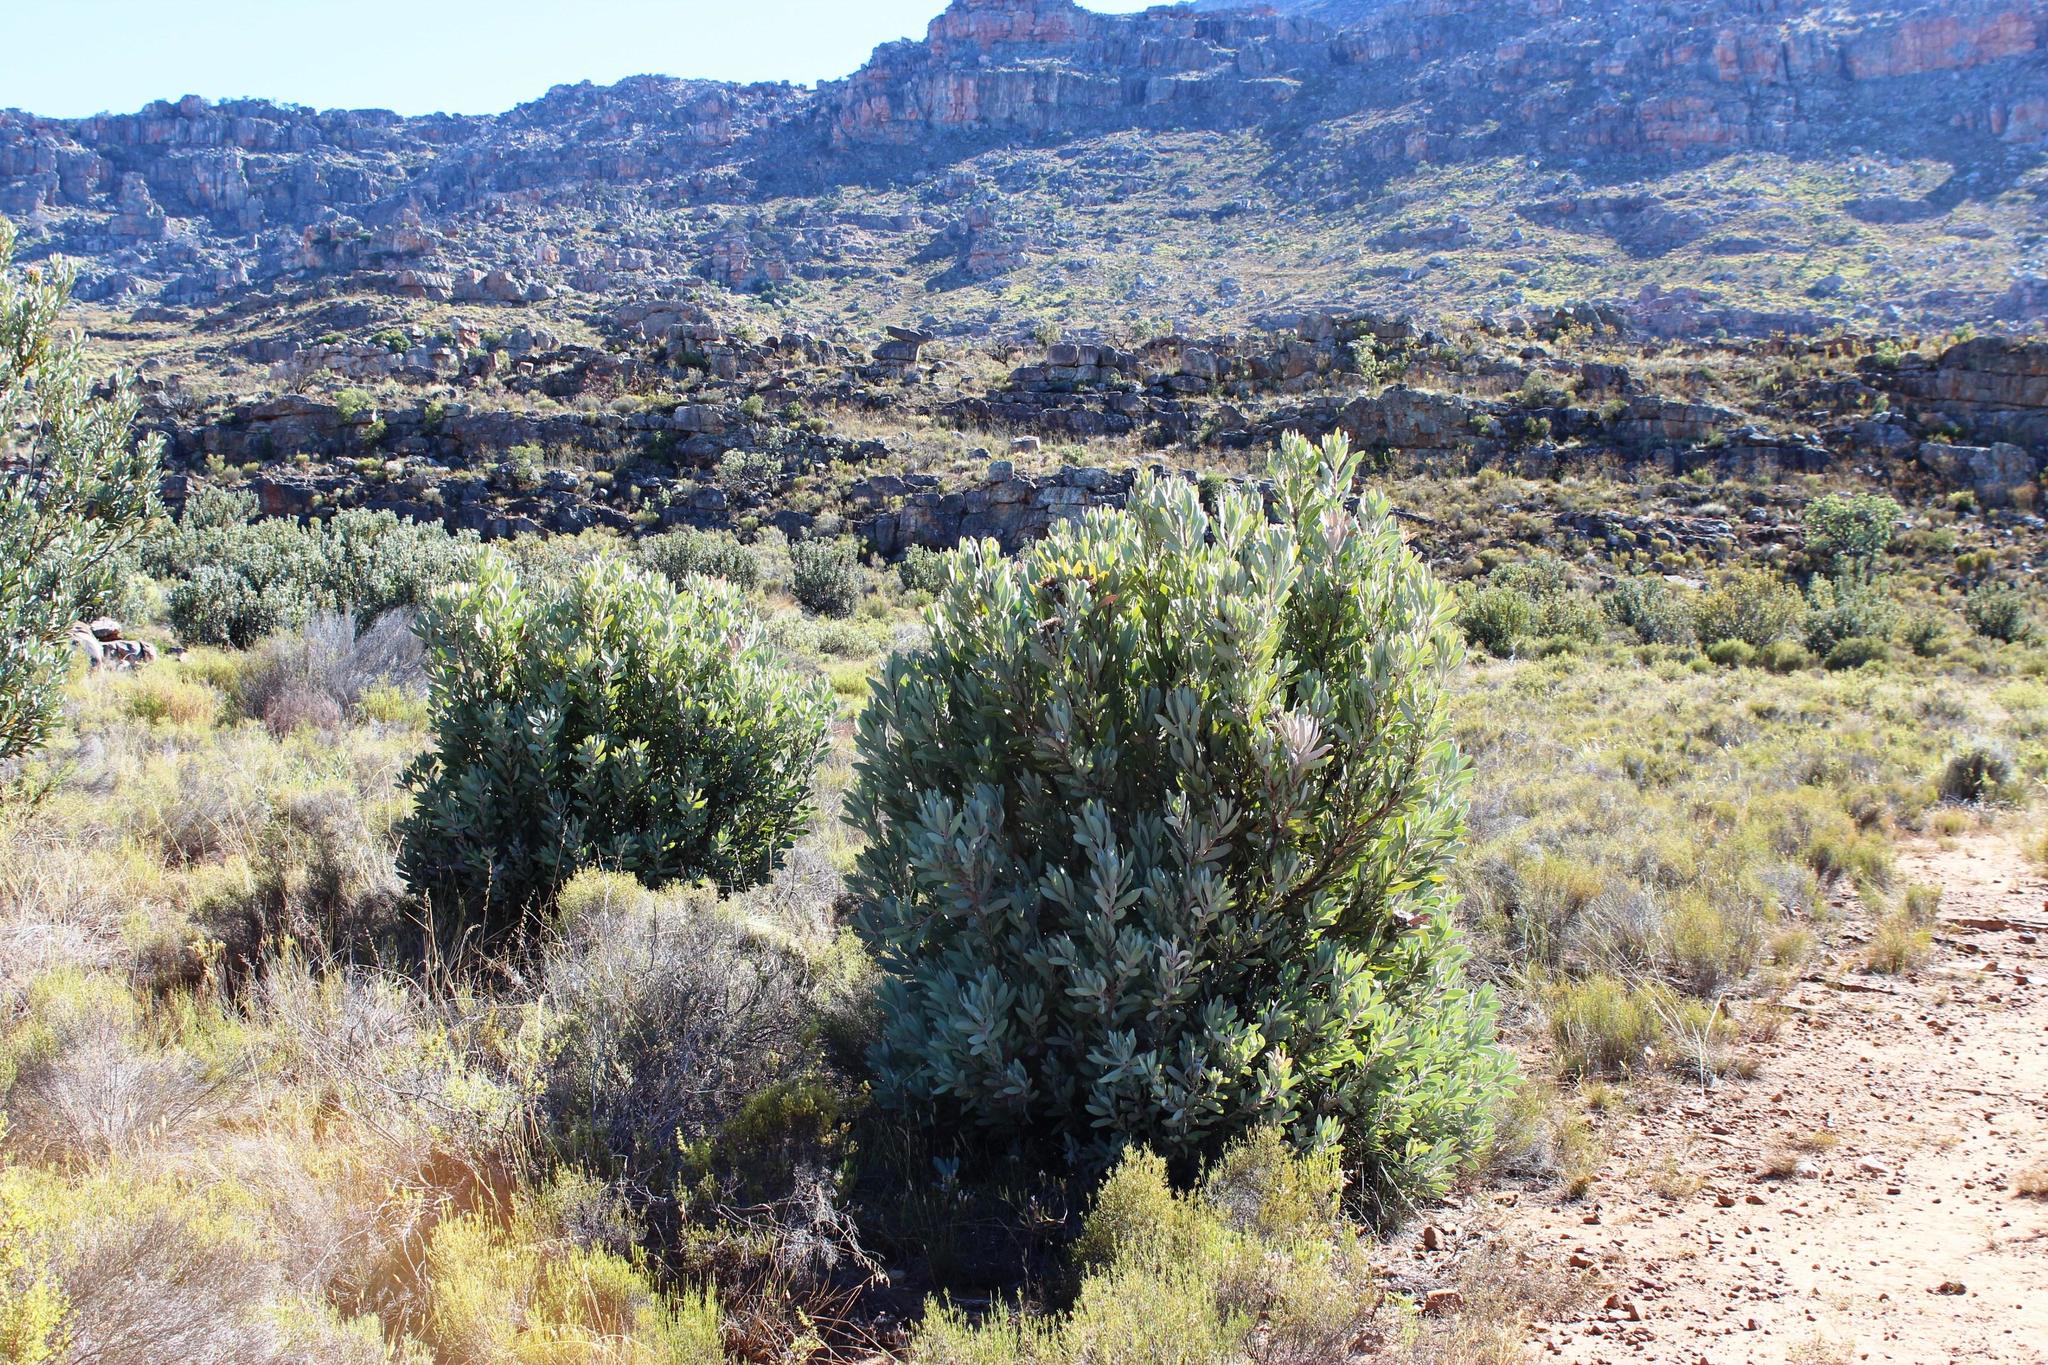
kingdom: Plantae
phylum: Tracheophyta
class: Magnoliopsida
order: Proteales
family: Proteaceae
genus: Protea
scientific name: Protea laurifolia
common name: Grey-leaf sugarbsh
